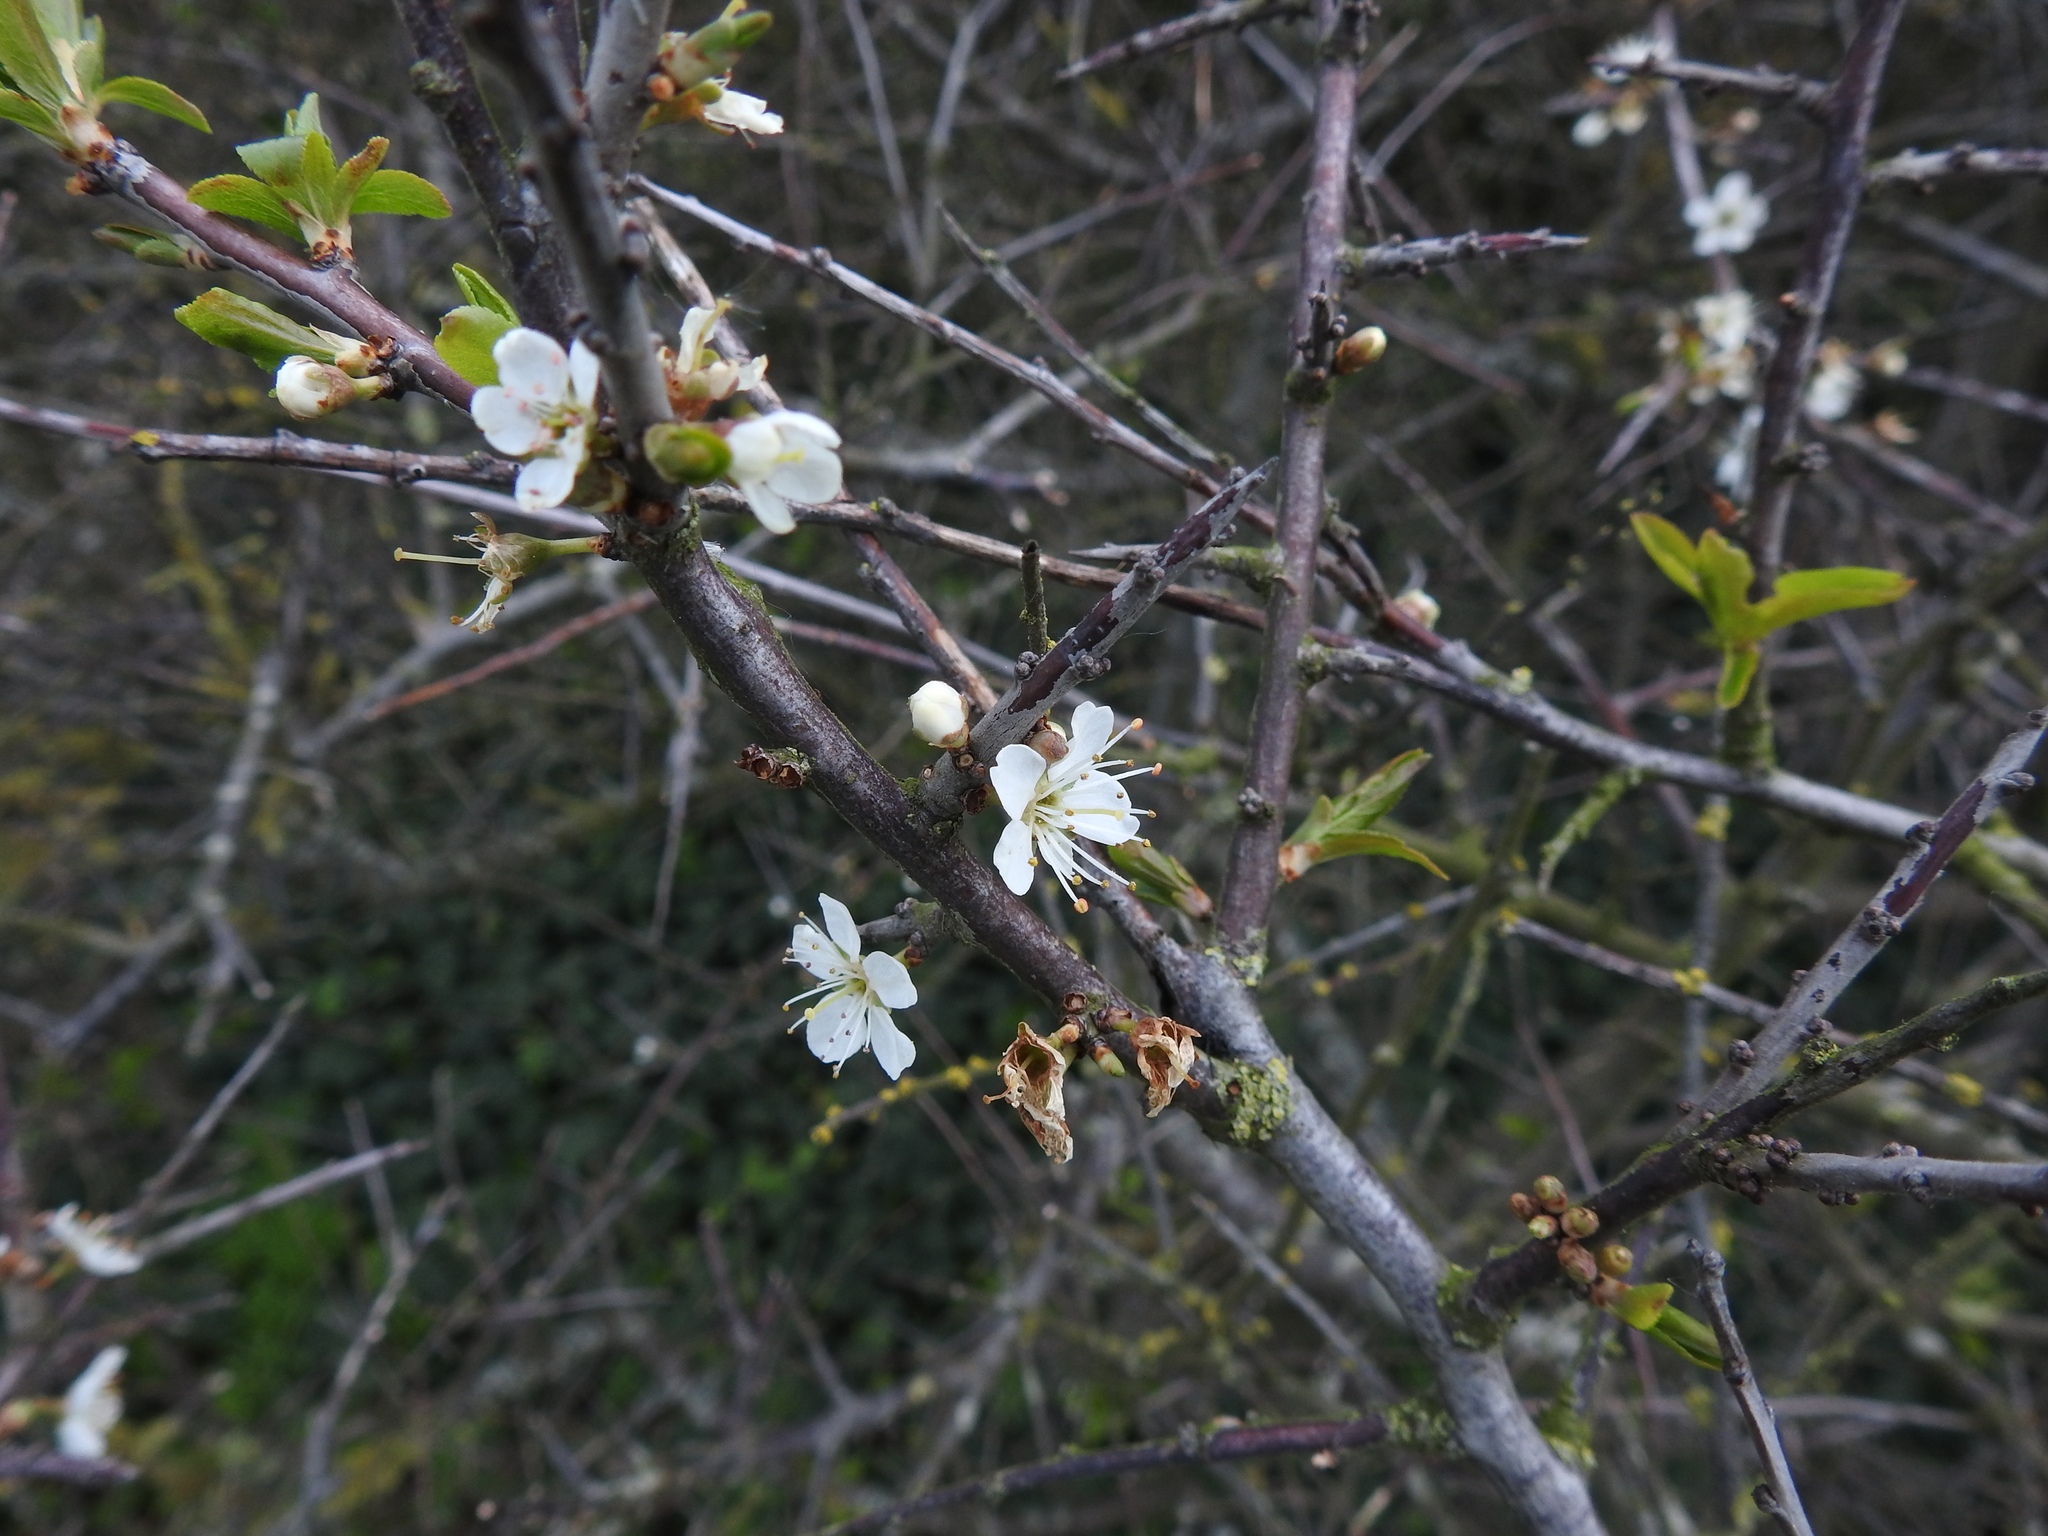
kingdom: Plantae
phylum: Tracheophyta
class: Magnoliopsida
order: Rosales
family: Rosaceae
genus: Prunus
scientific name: Prunus spinosa
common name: Blackthorn
